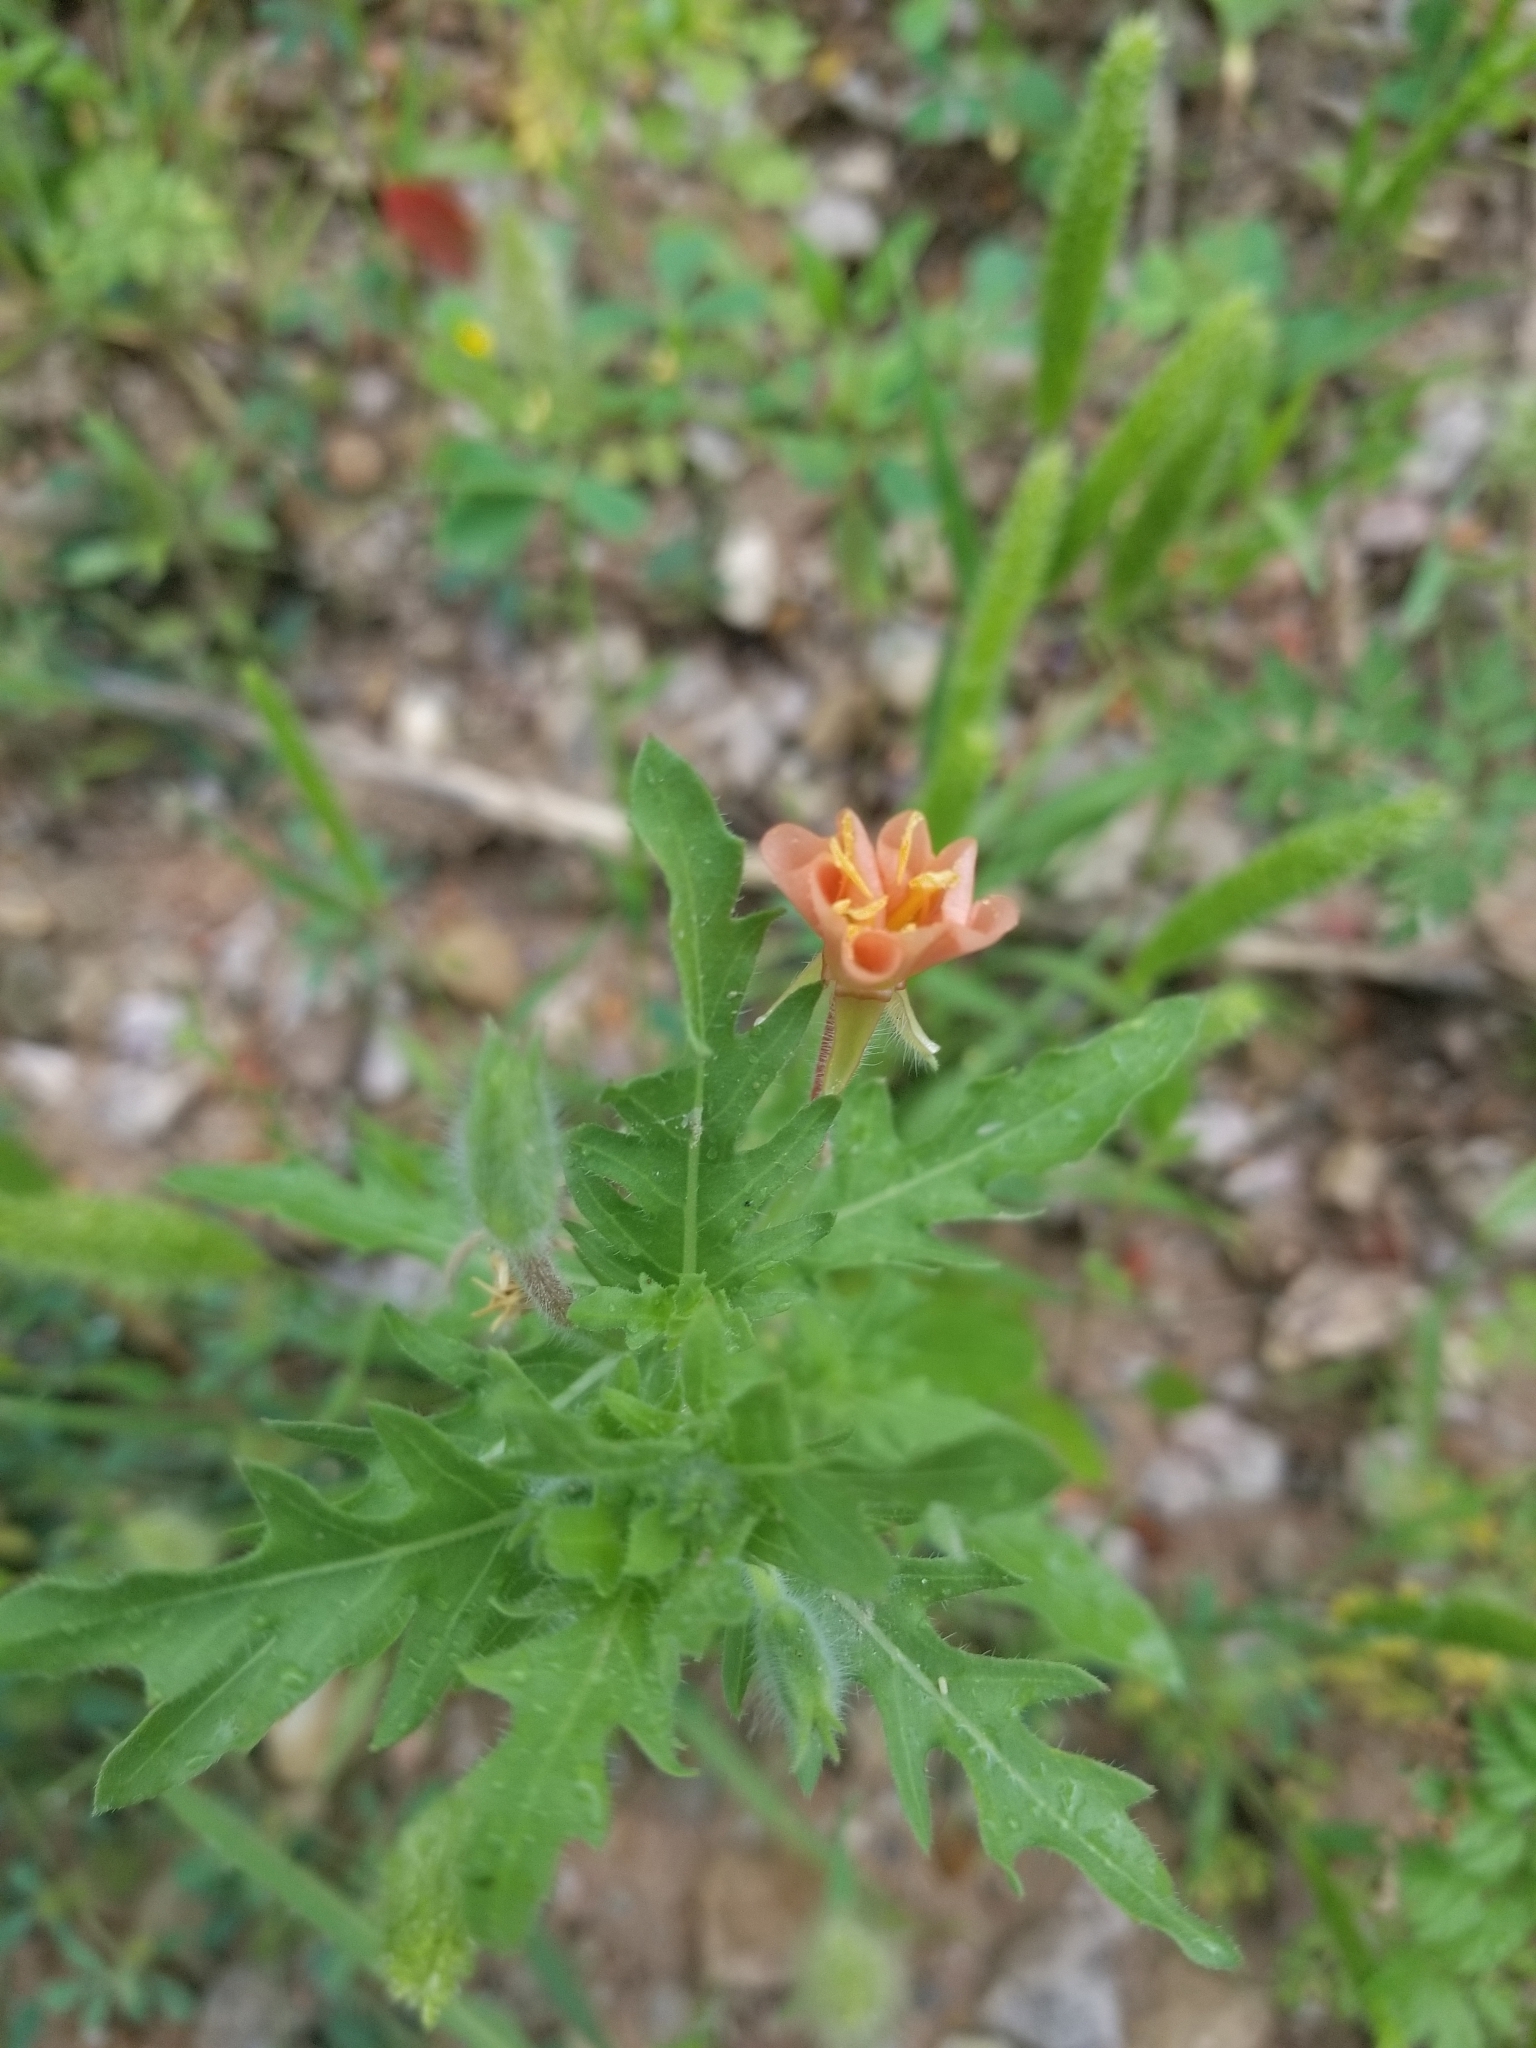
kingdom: Plantae
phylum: Tracheophyta
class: Magnoliopsida
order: Myrtales
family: Onagraceae
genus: Oenothera
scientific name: Oenothera laciniata
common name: Cut-leaved evening-primrose
